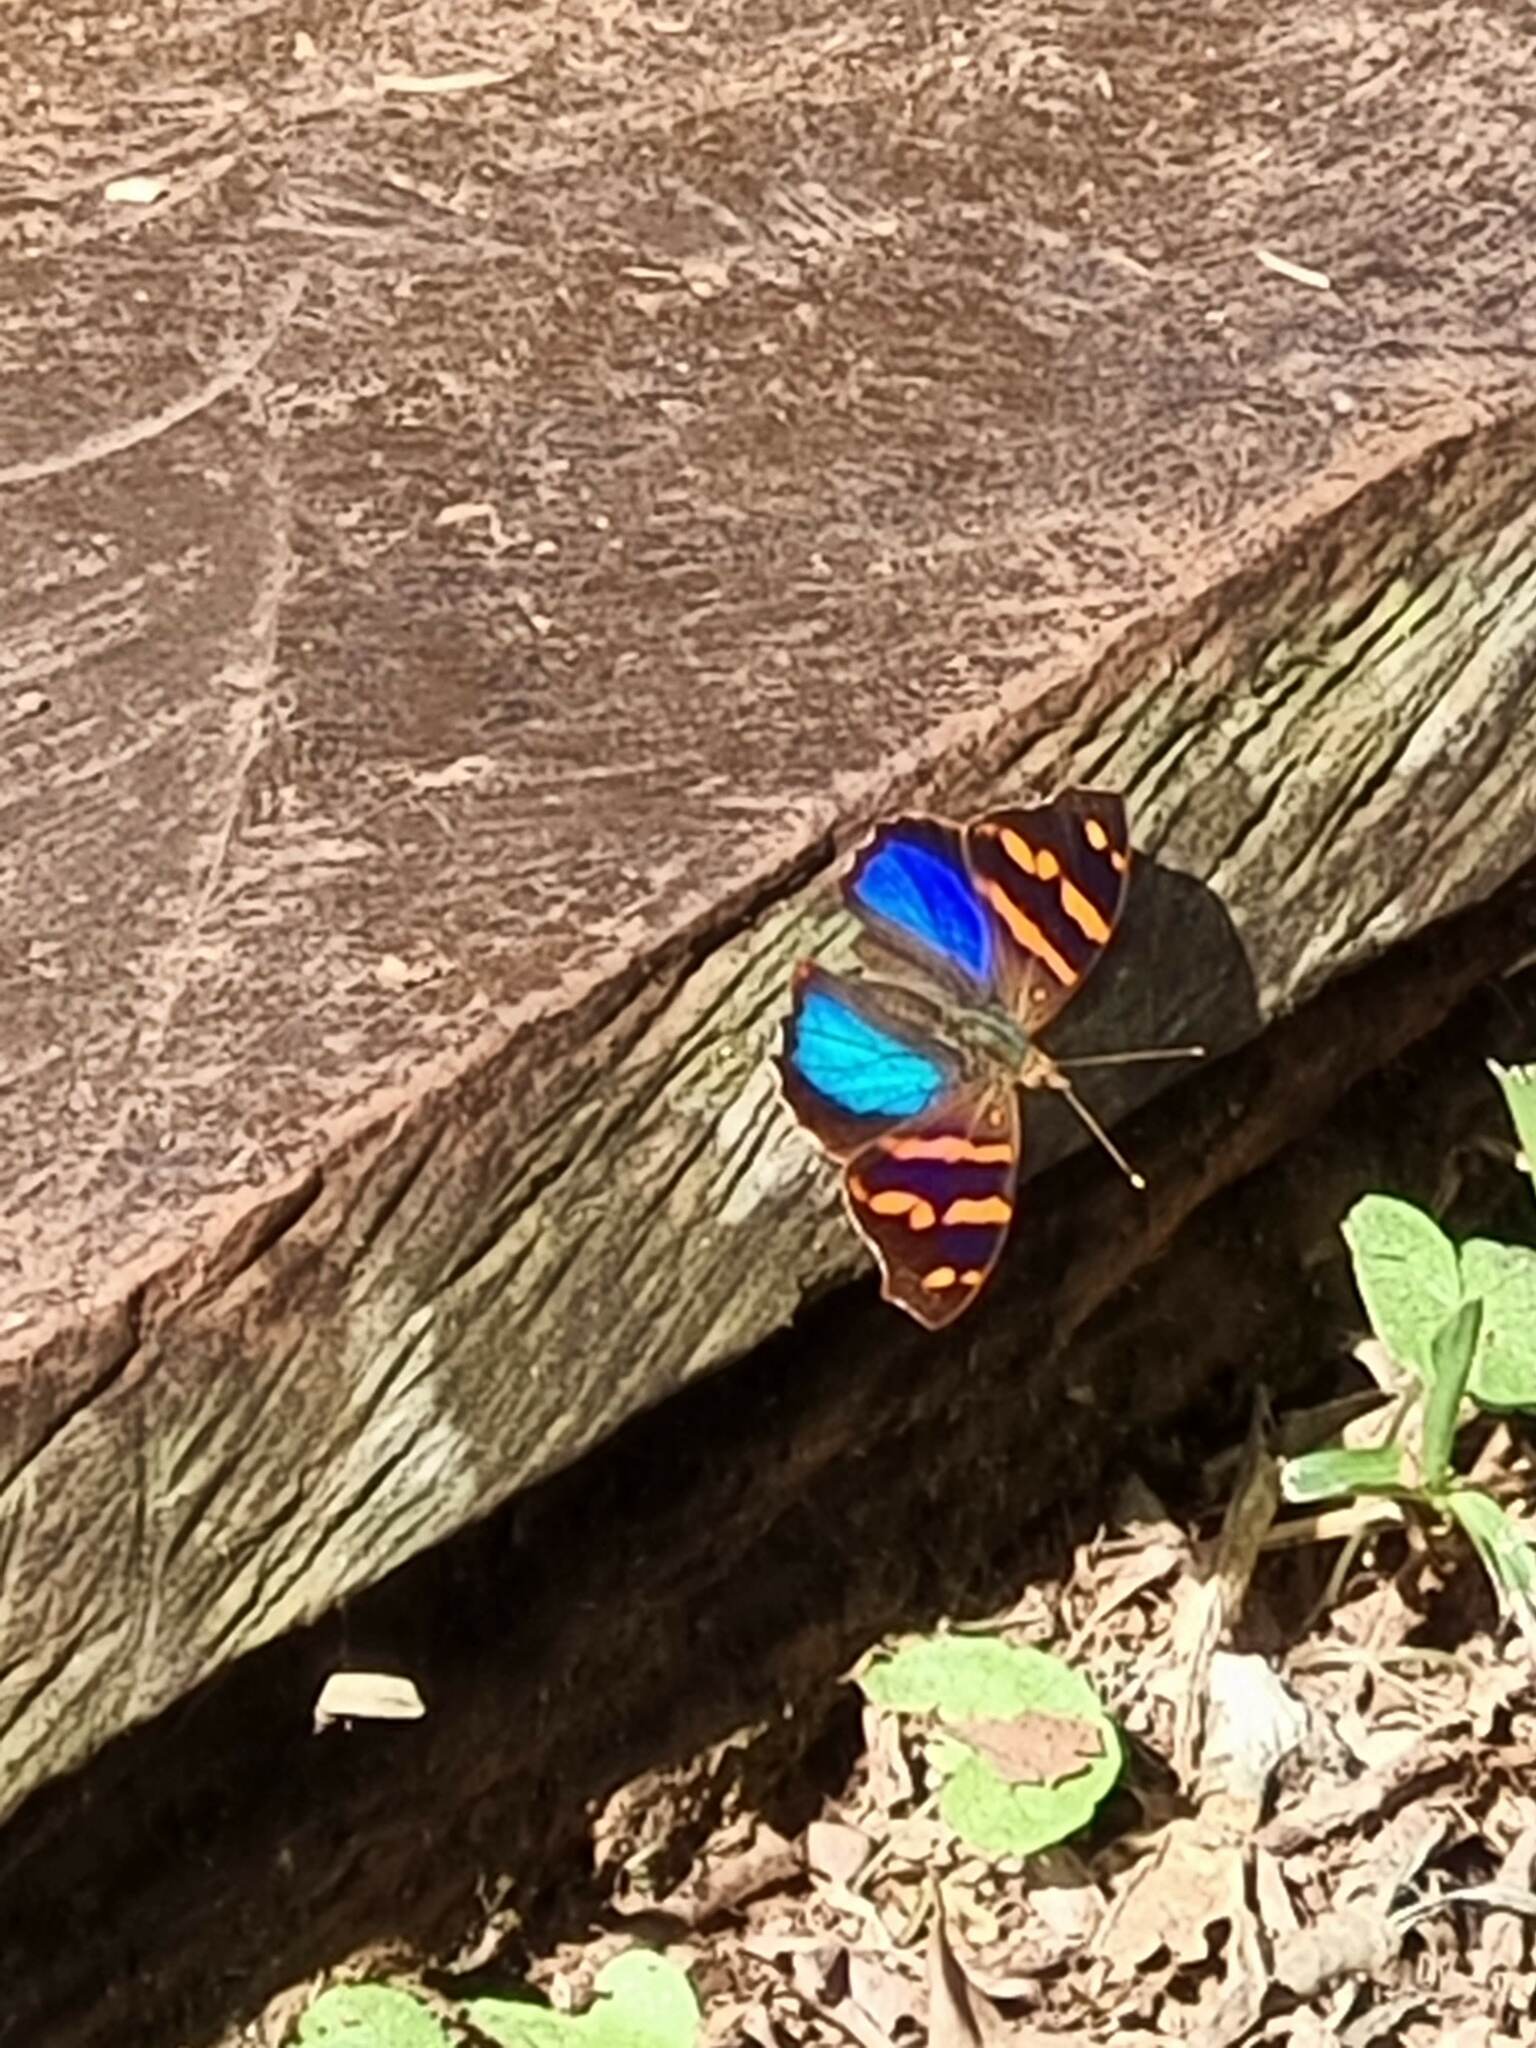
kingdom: Animalia
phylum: Arthropoda
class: Insecta
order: Lepidoptera
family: Nymphalidae
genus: Epiphile
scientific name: Epiphile orea
